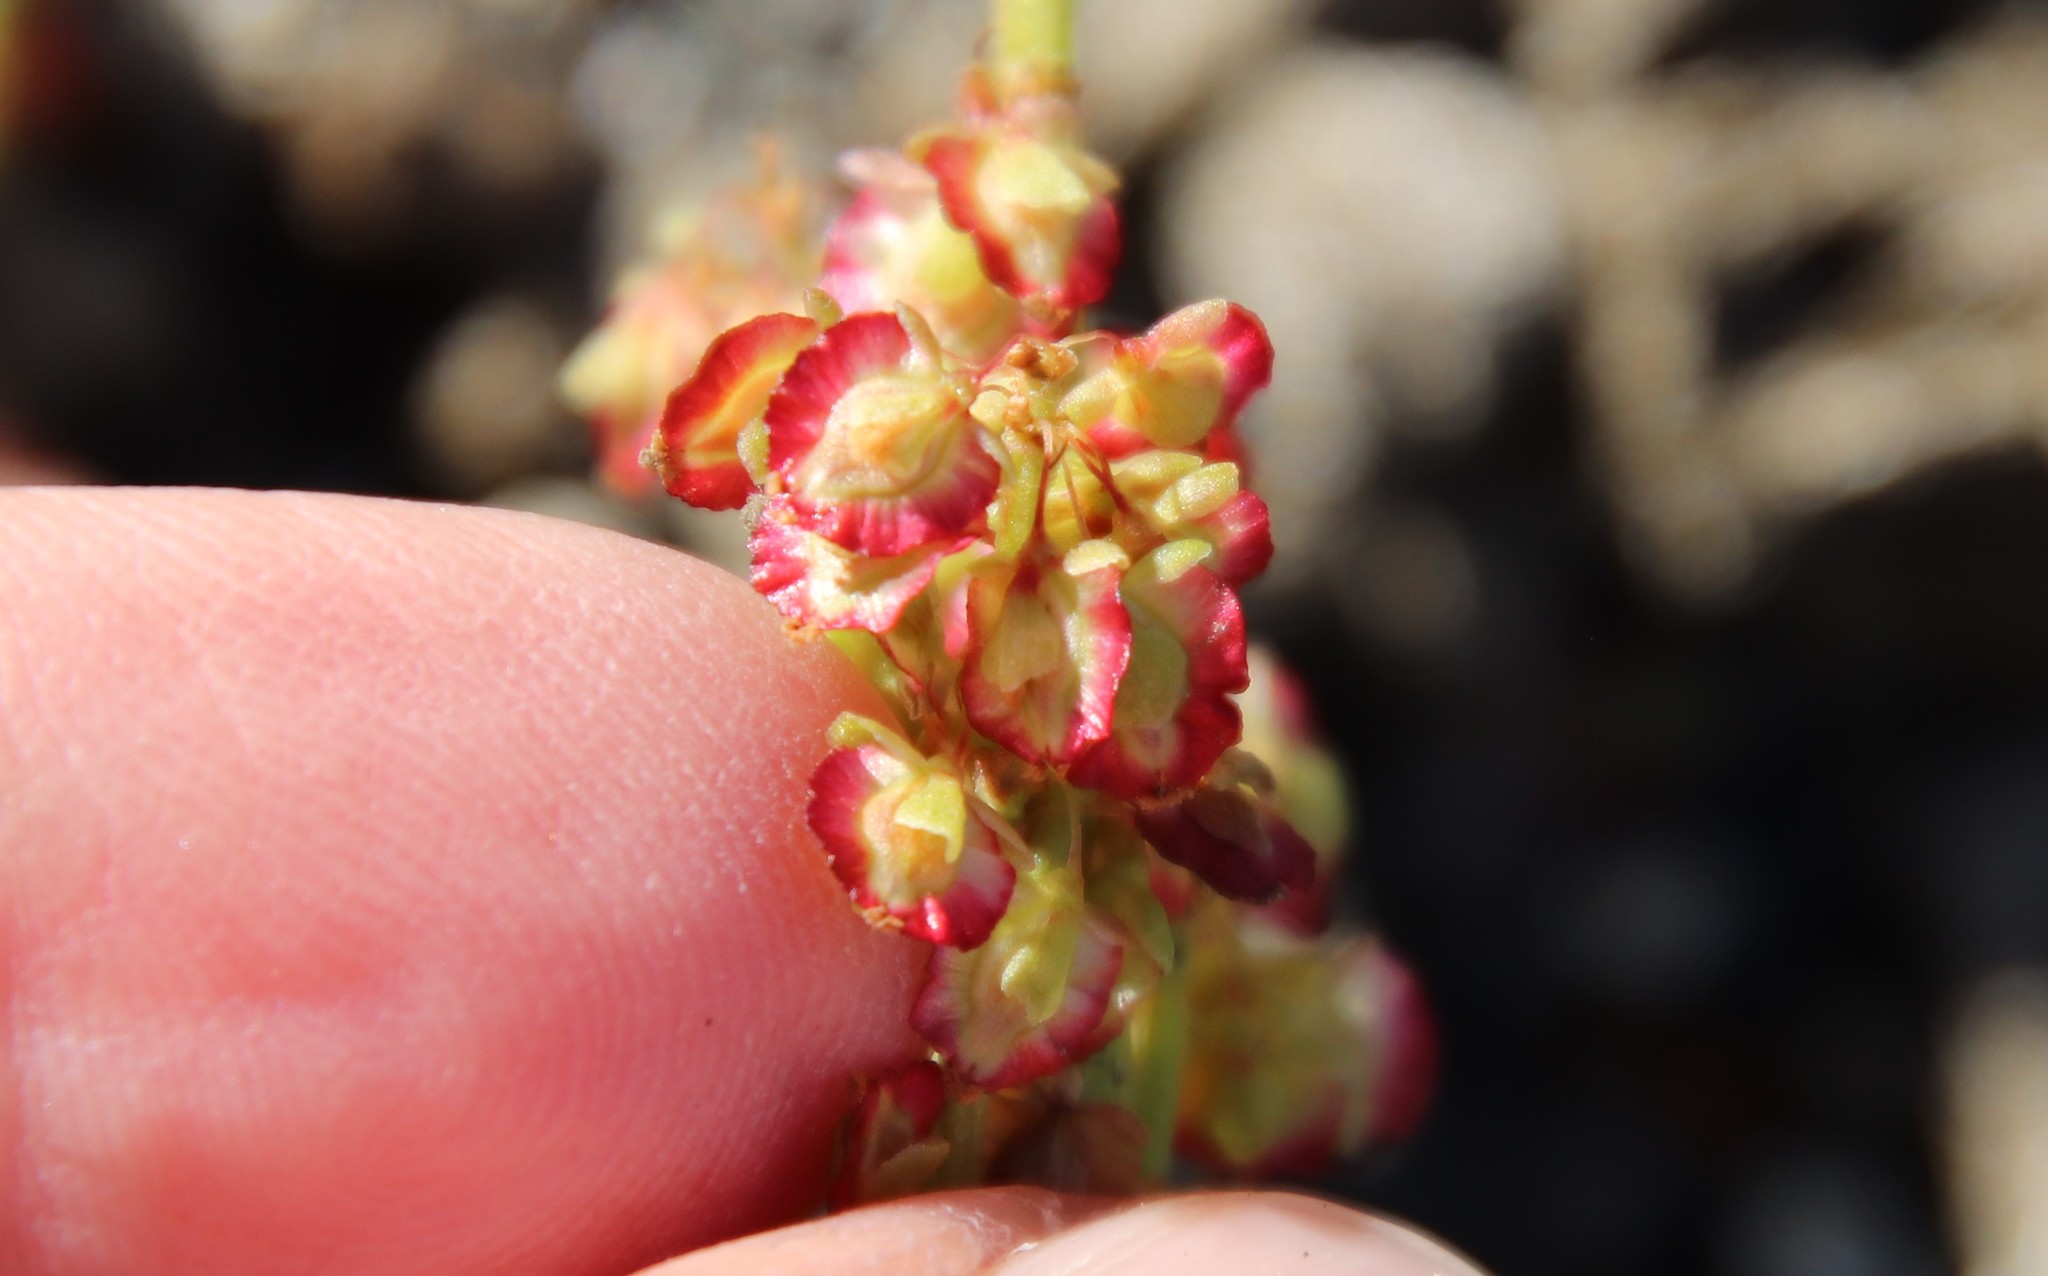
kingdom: Plantae
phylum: Tracheophyta
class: Magnoliopsida
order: Caryophyllales
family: Polygonaceae
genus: Oxyria
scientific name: Oxyria digyna
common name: Alpine mountain-sorrel
